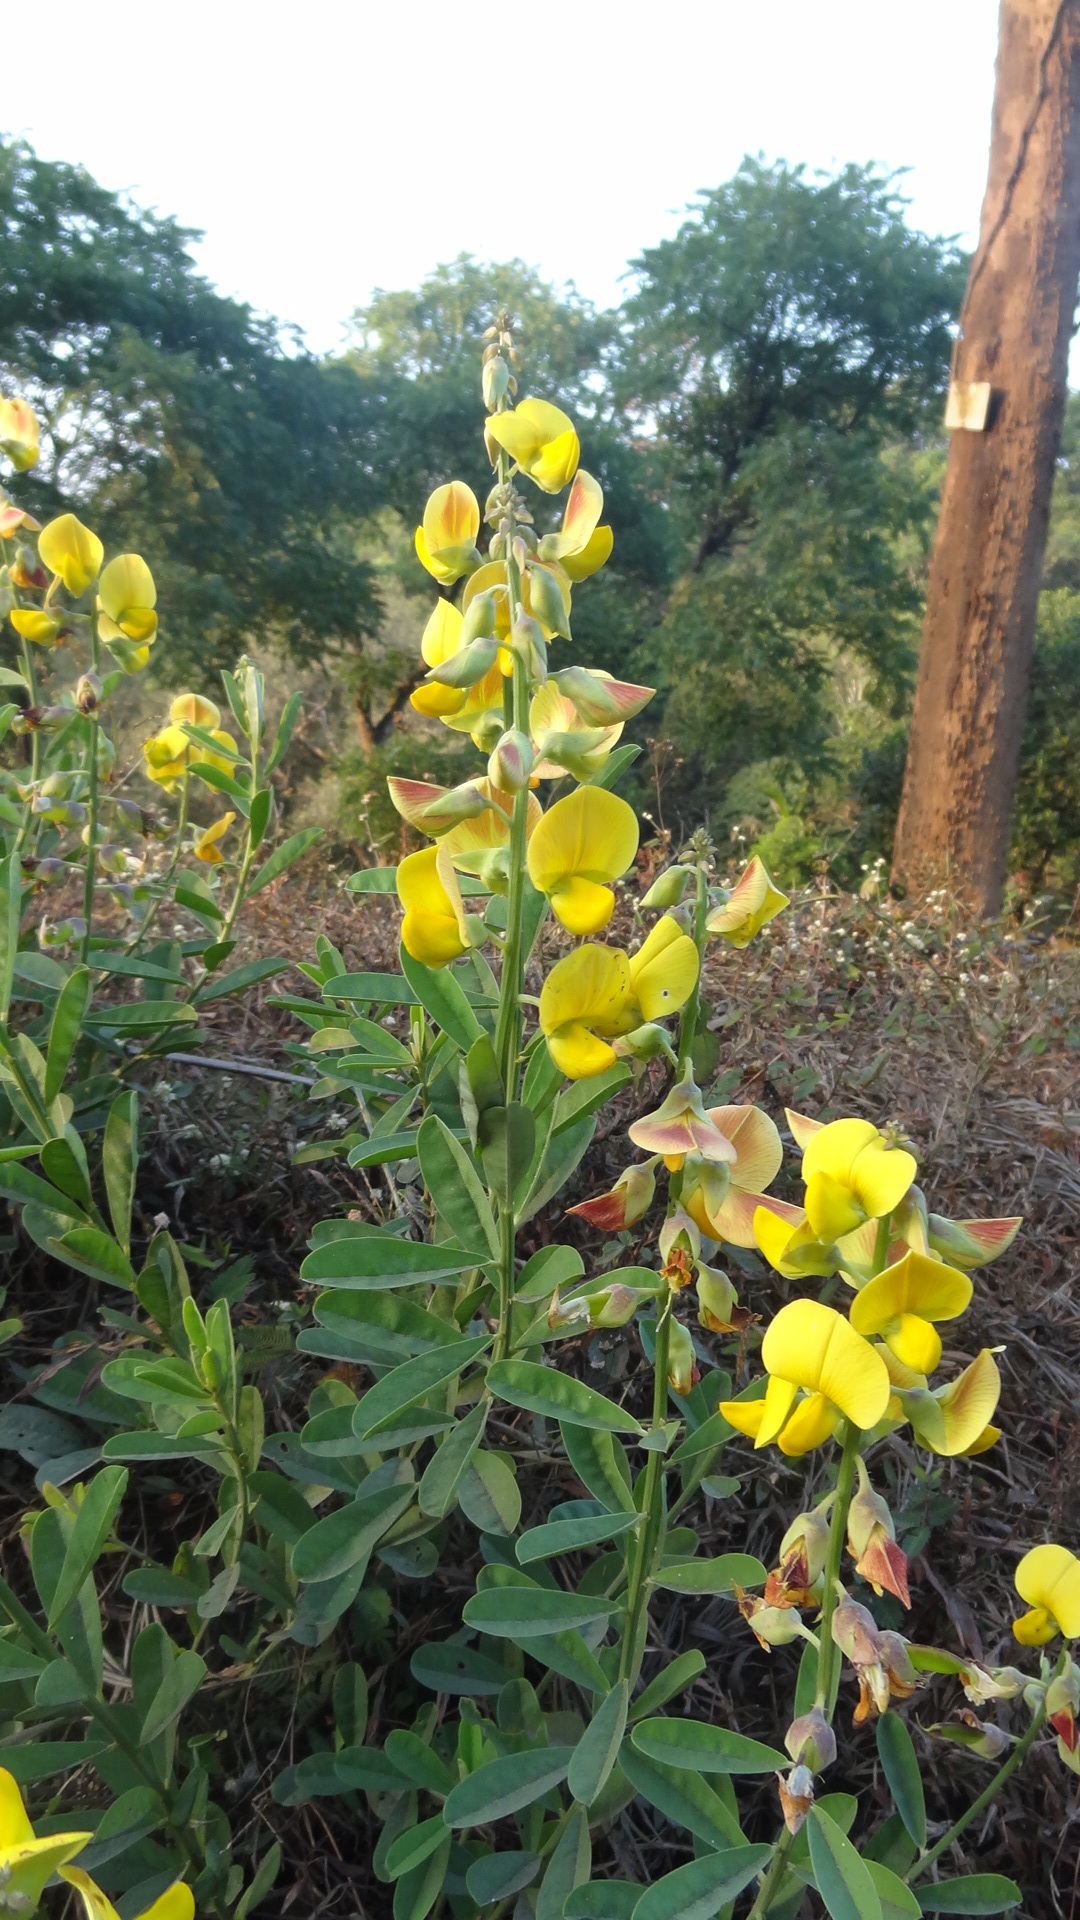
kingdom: Plantae
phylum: Tracheophyta
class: Magnoliopsida
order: Fabales
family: Fabaceae
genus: Crotalaria
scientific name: Crotalaria spectabilis
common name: Showy rattlebox
